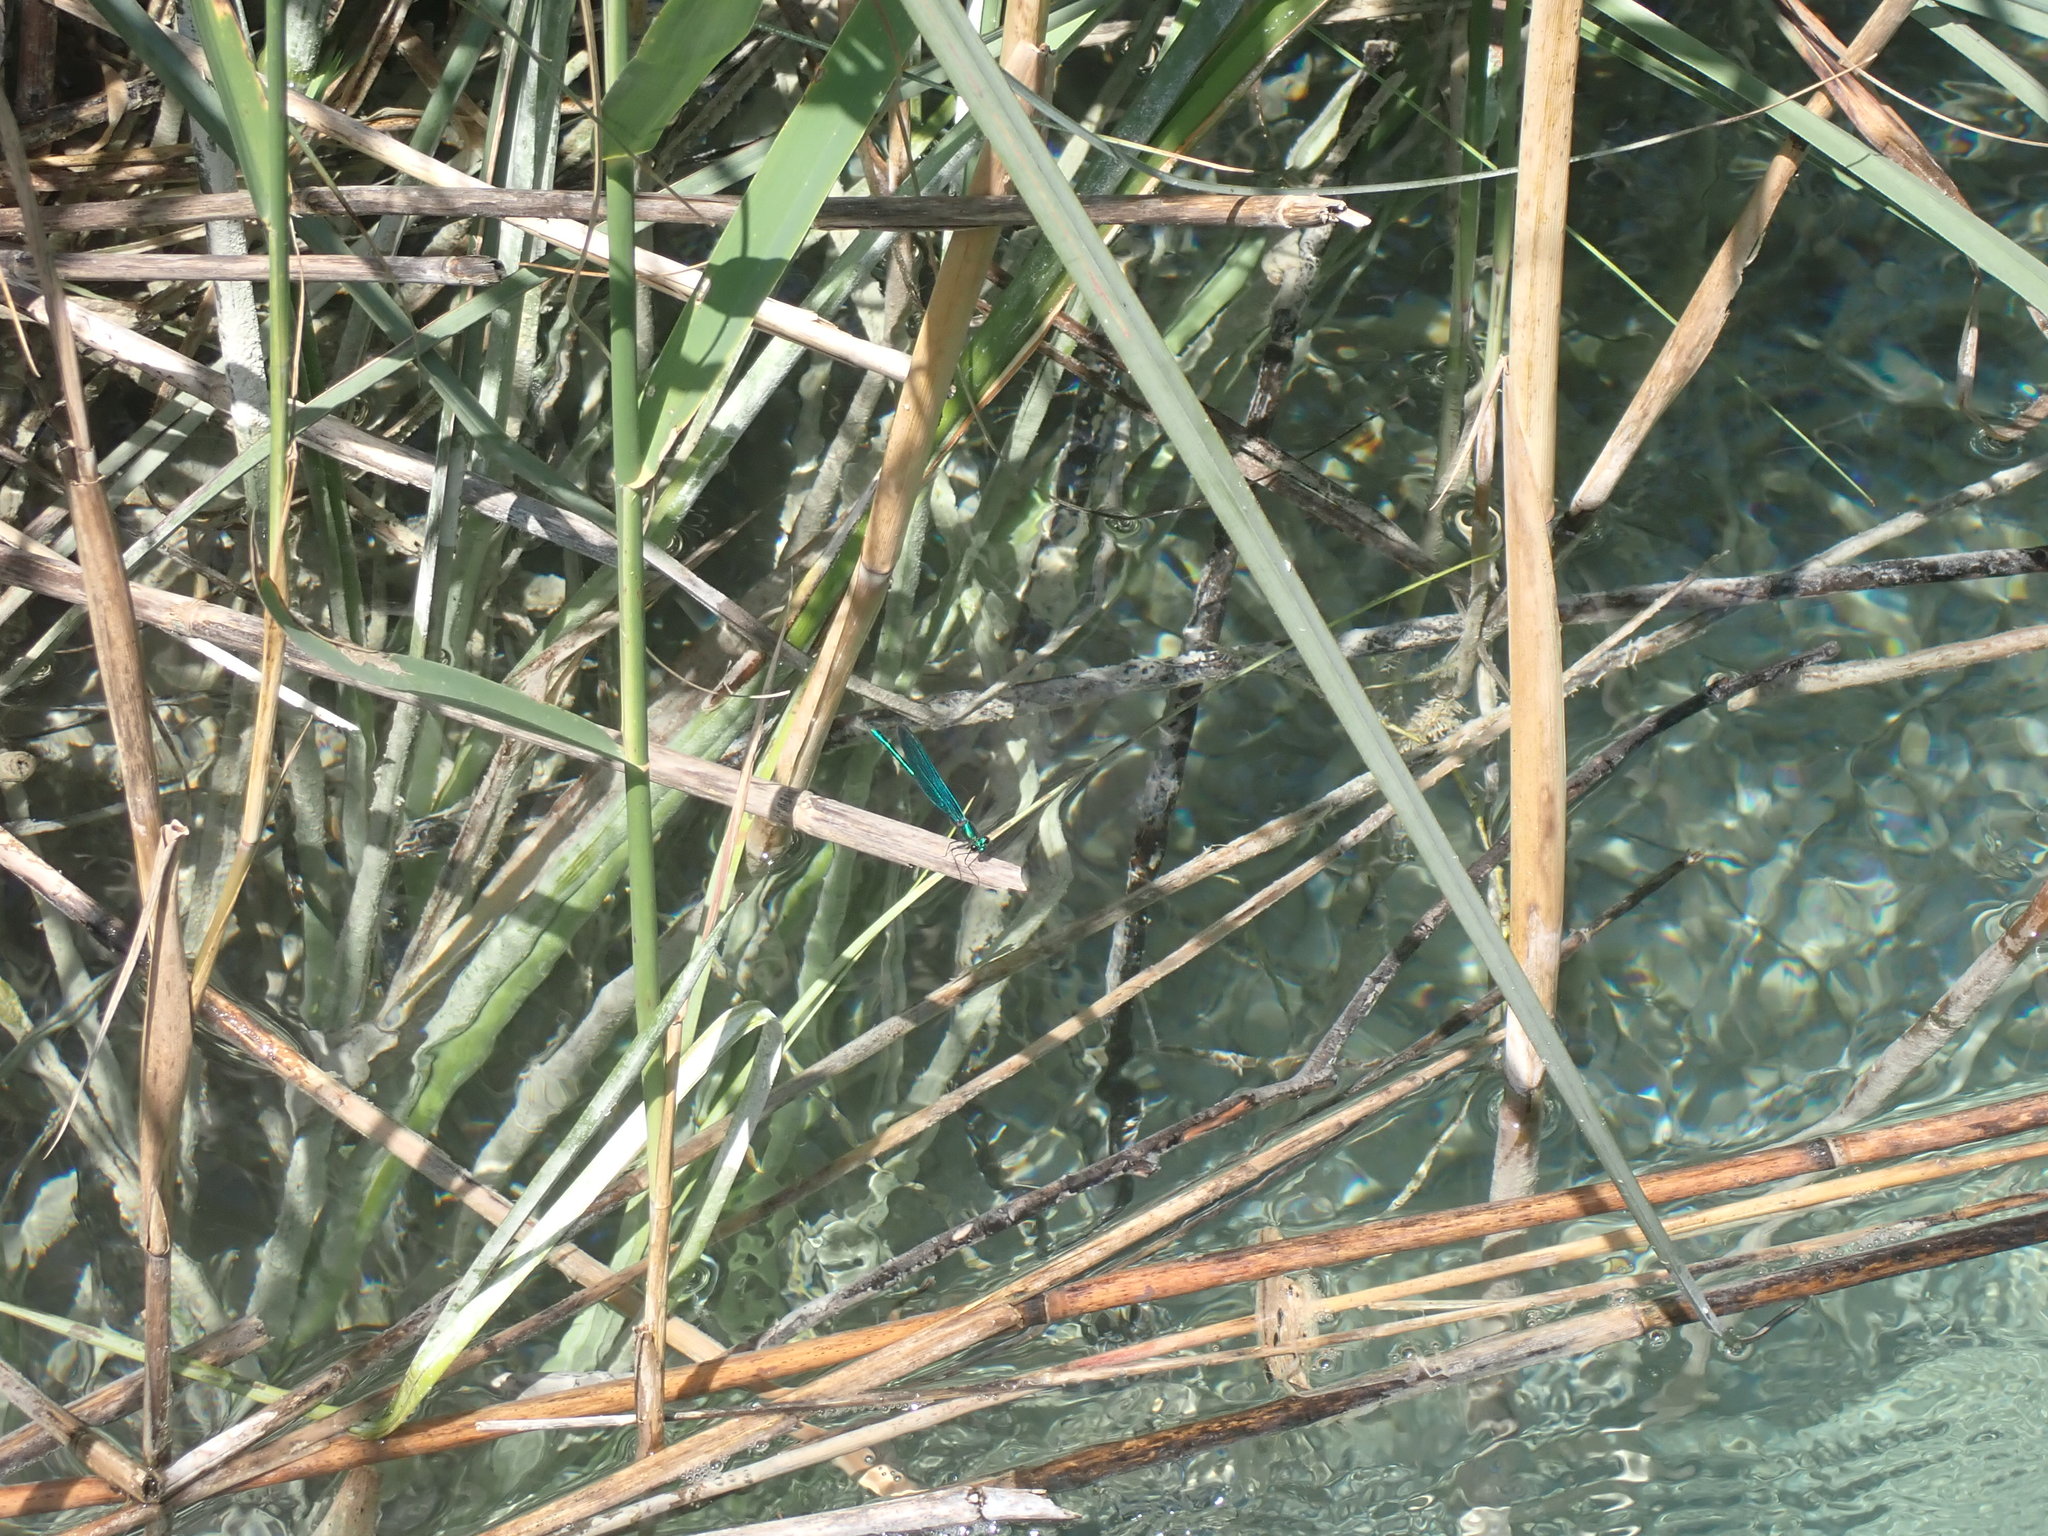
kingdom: Animalia
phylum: Arthropoda
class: Insecta
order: Odonata
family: Calopterygidae
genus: Calopteryx
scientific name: Calopteryx virgo
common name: Beautiful demoiselle
